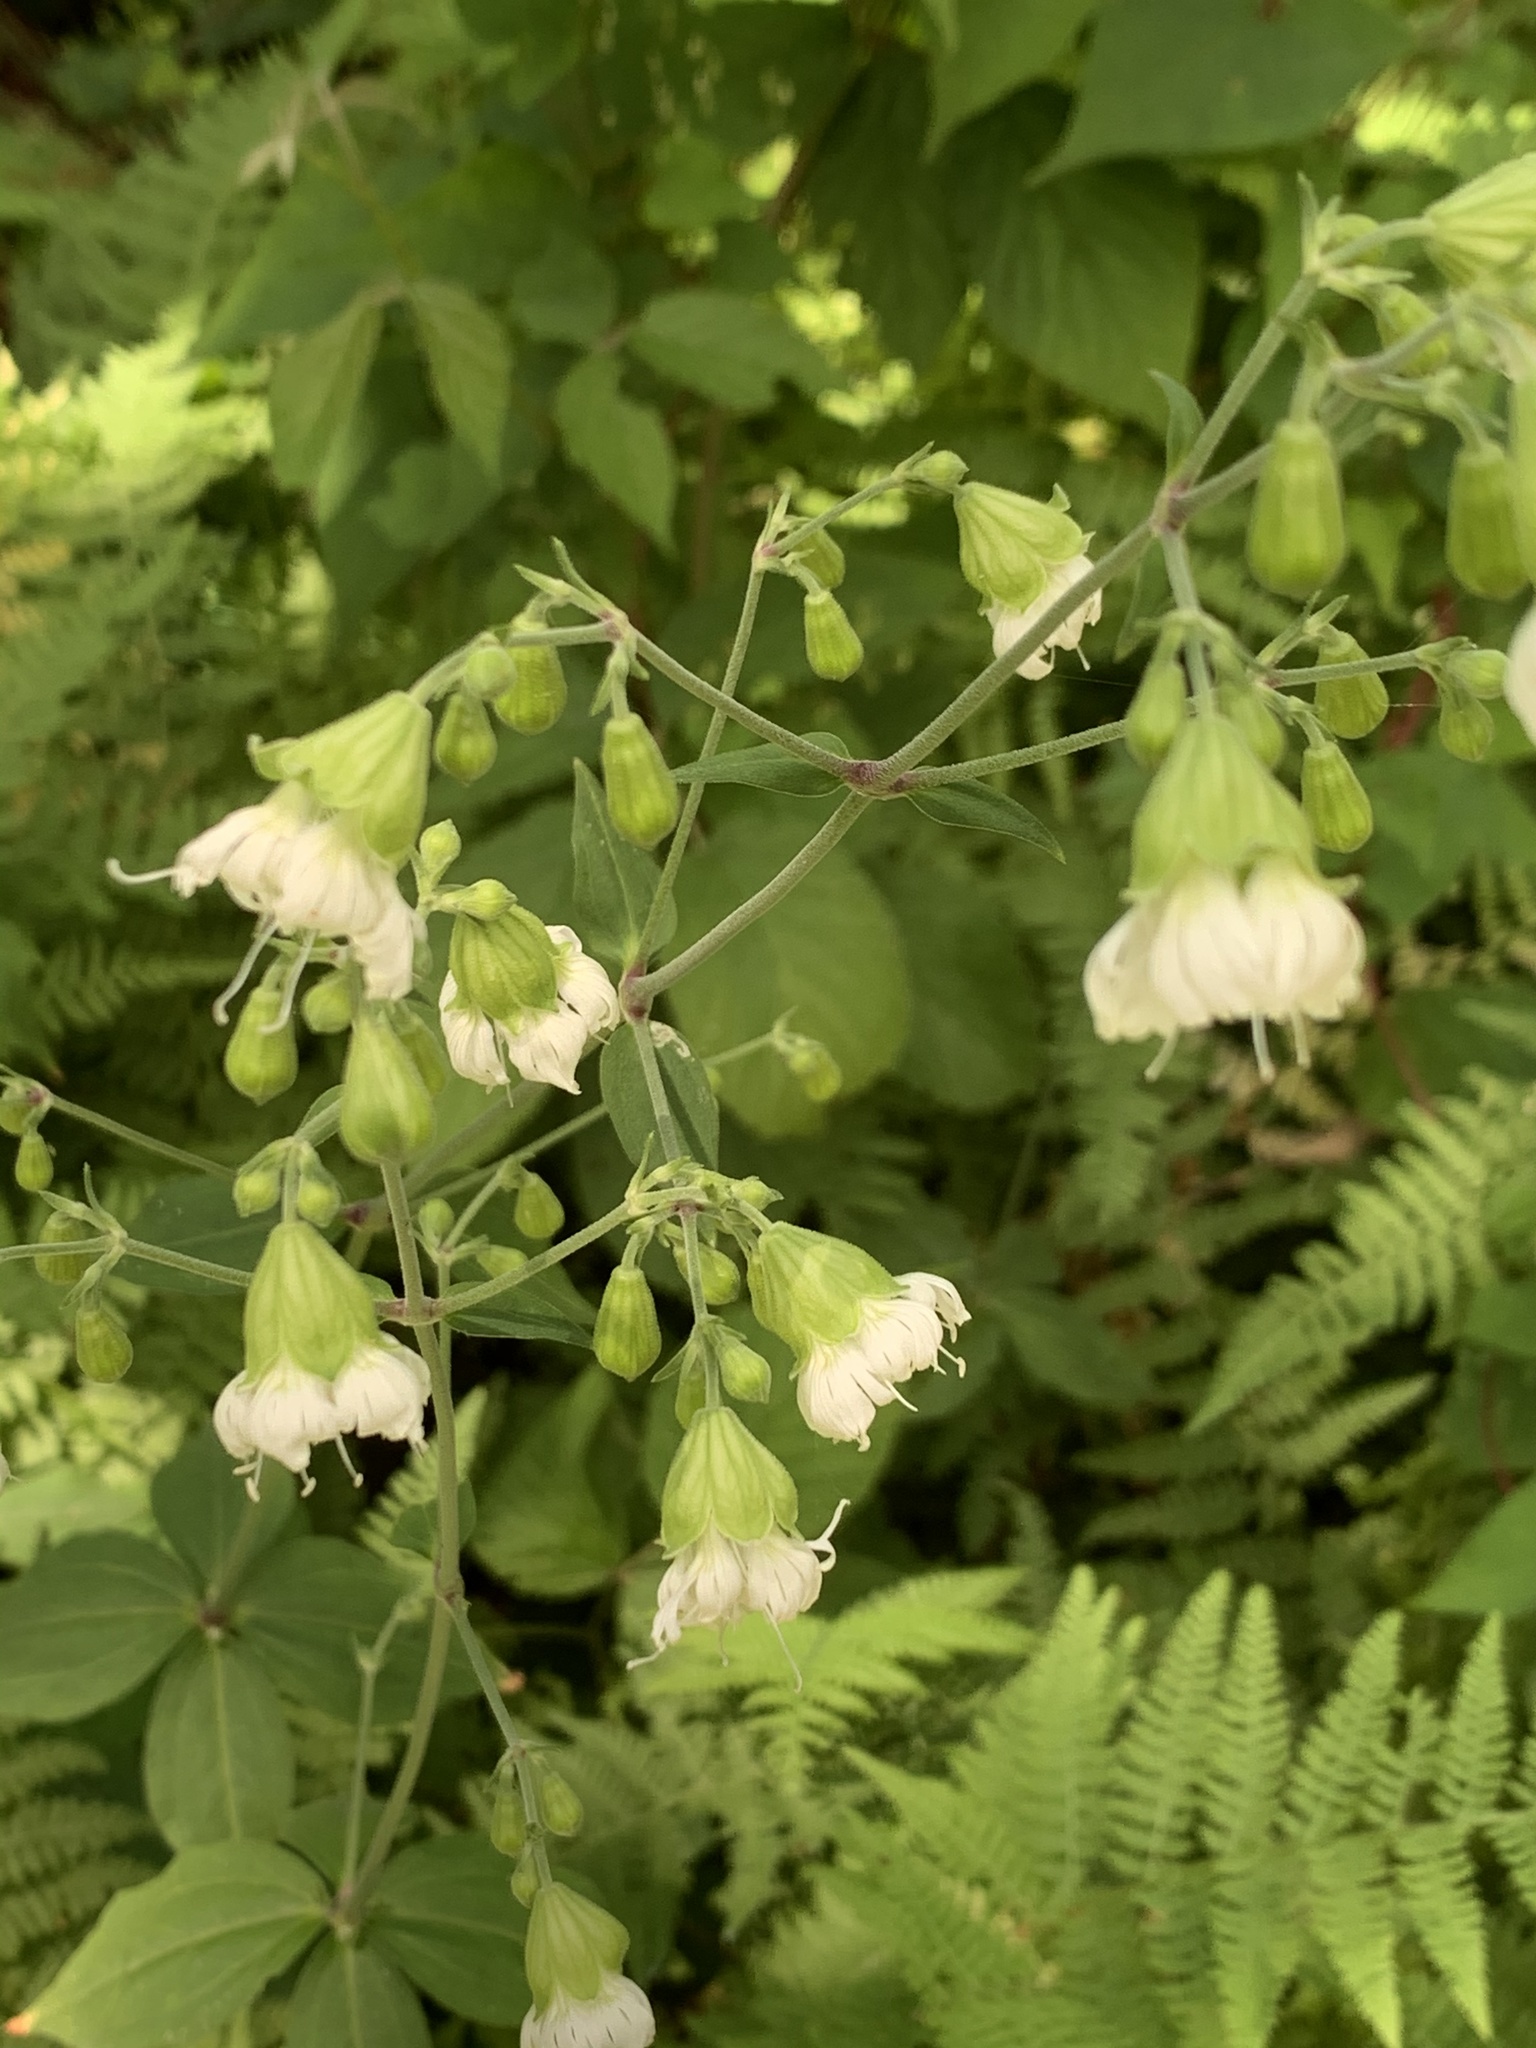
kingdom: Plantae
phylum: Tracheophyta
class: Magnoliopsida
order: Caryophyllales
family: Caryophyllaceae
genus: Silene
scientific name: Silene stellata
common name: Starry campion
